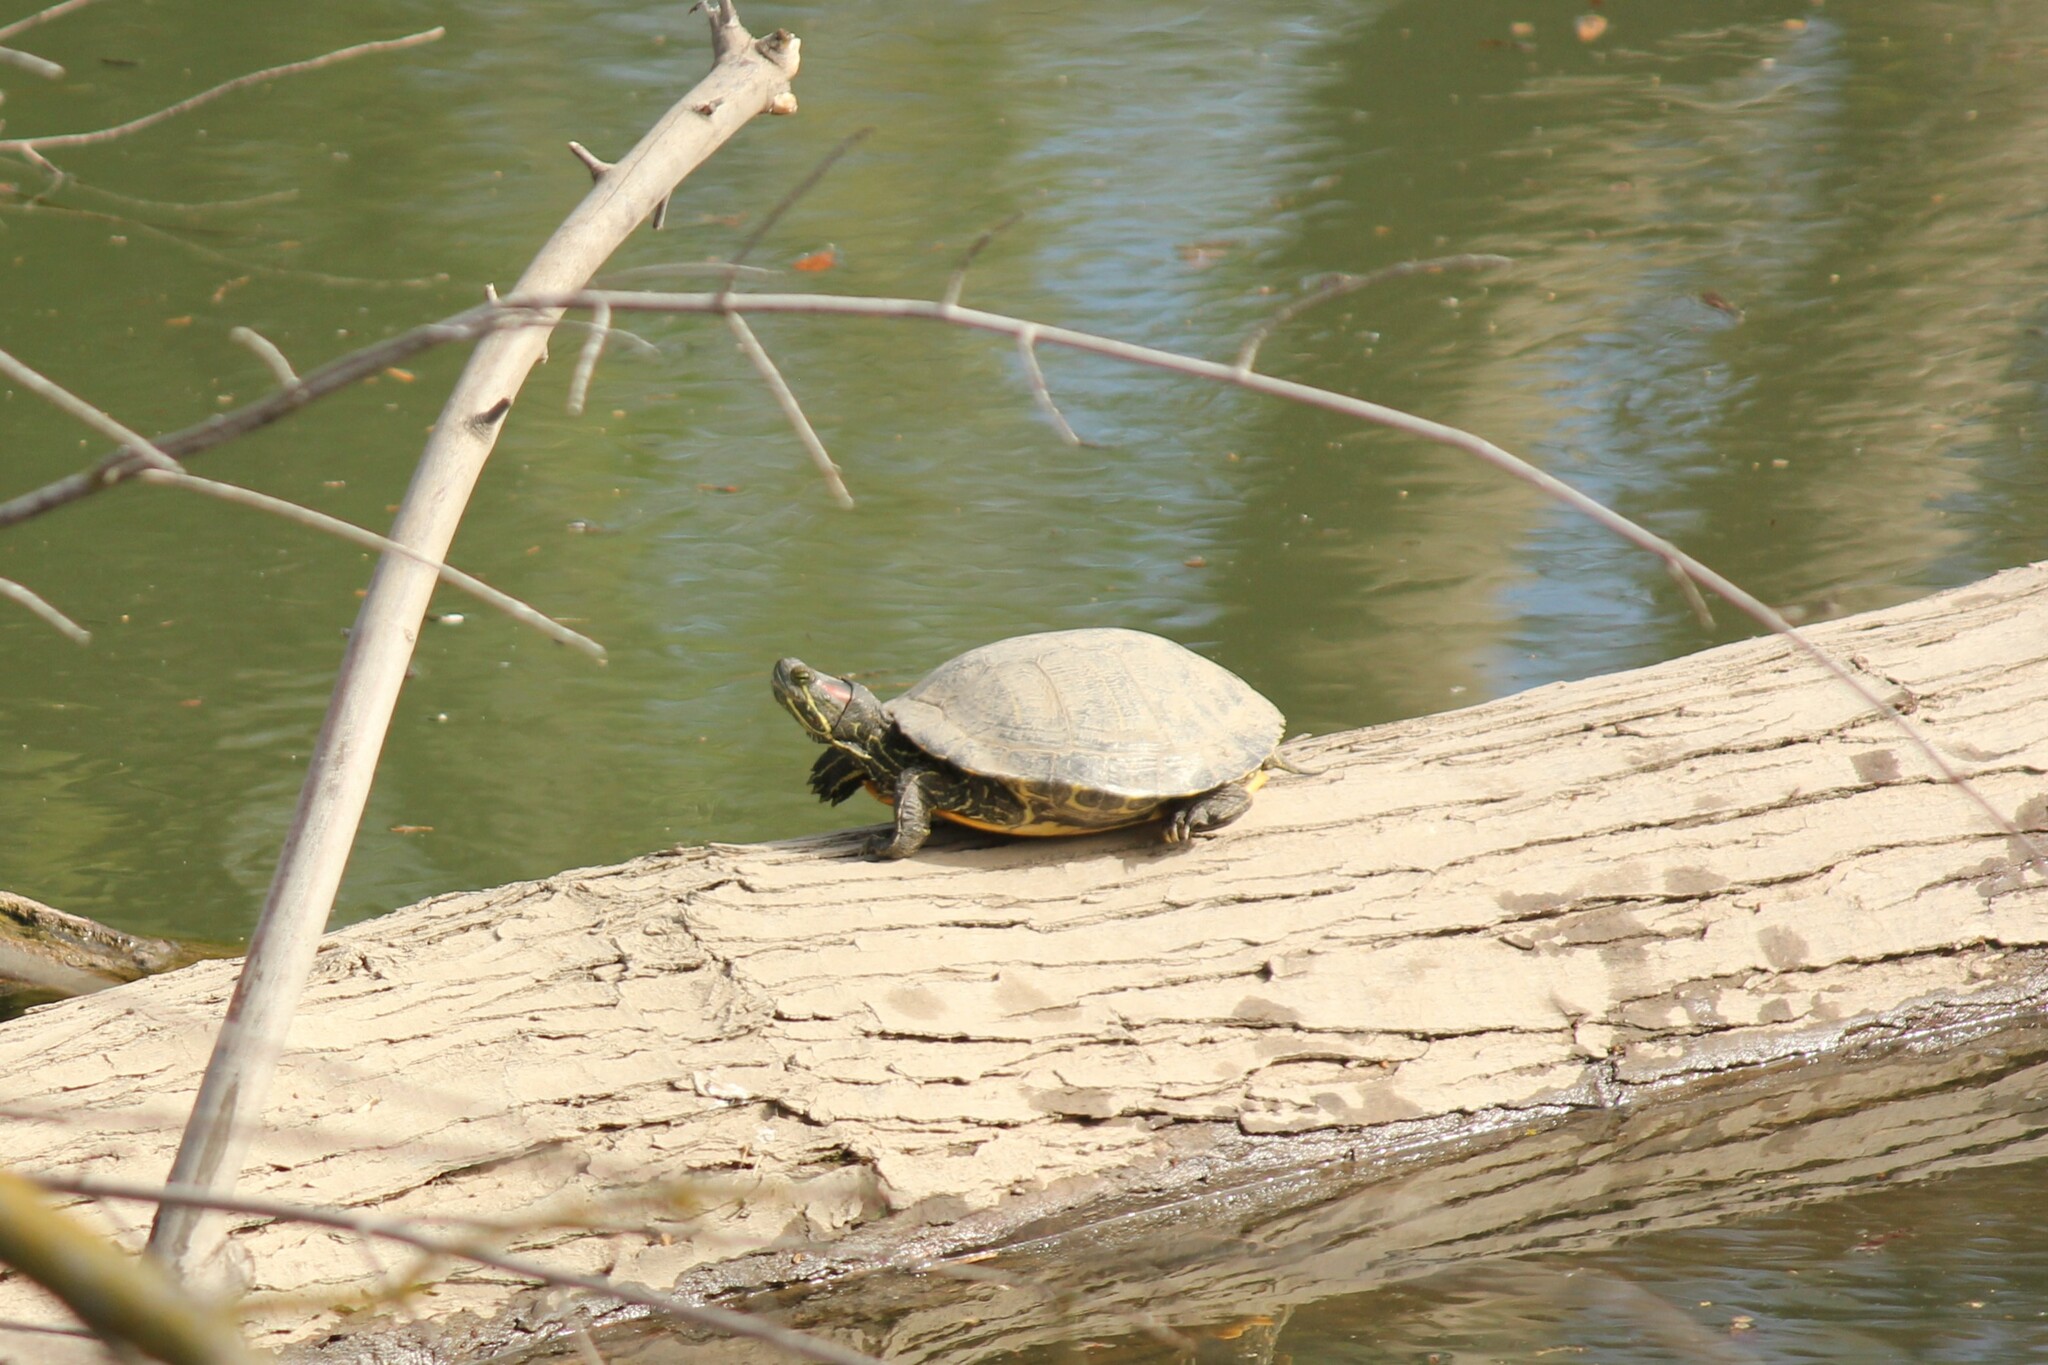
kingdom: Animalia
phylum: Chordata
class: Testudines
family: Emydidae
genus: Trachemys
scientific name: Trachemys scripta
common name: Slider
